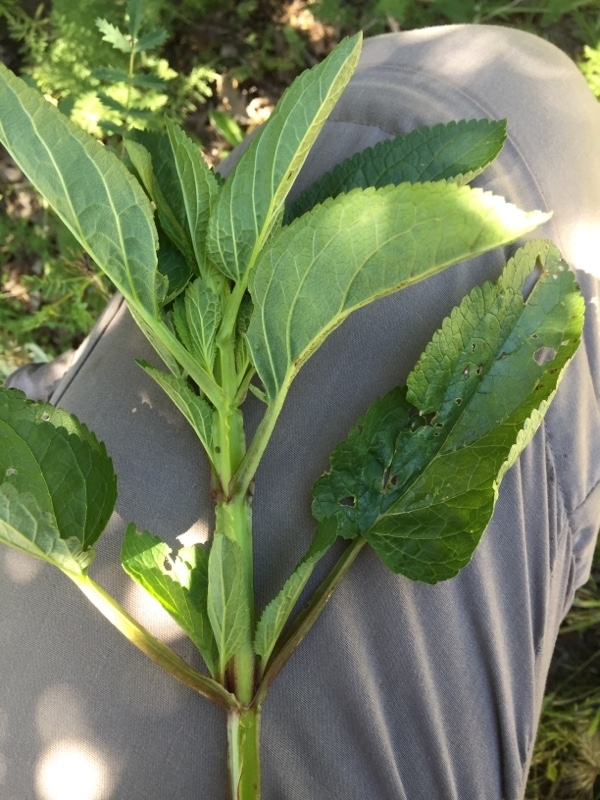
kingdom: Plantae
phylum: Tracheophyta
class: Magnoliopsida
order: Lamiales
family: Scrophulariaceae
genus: Scrophularia
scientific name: Scrophularia umbrosa
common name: Green figwort
